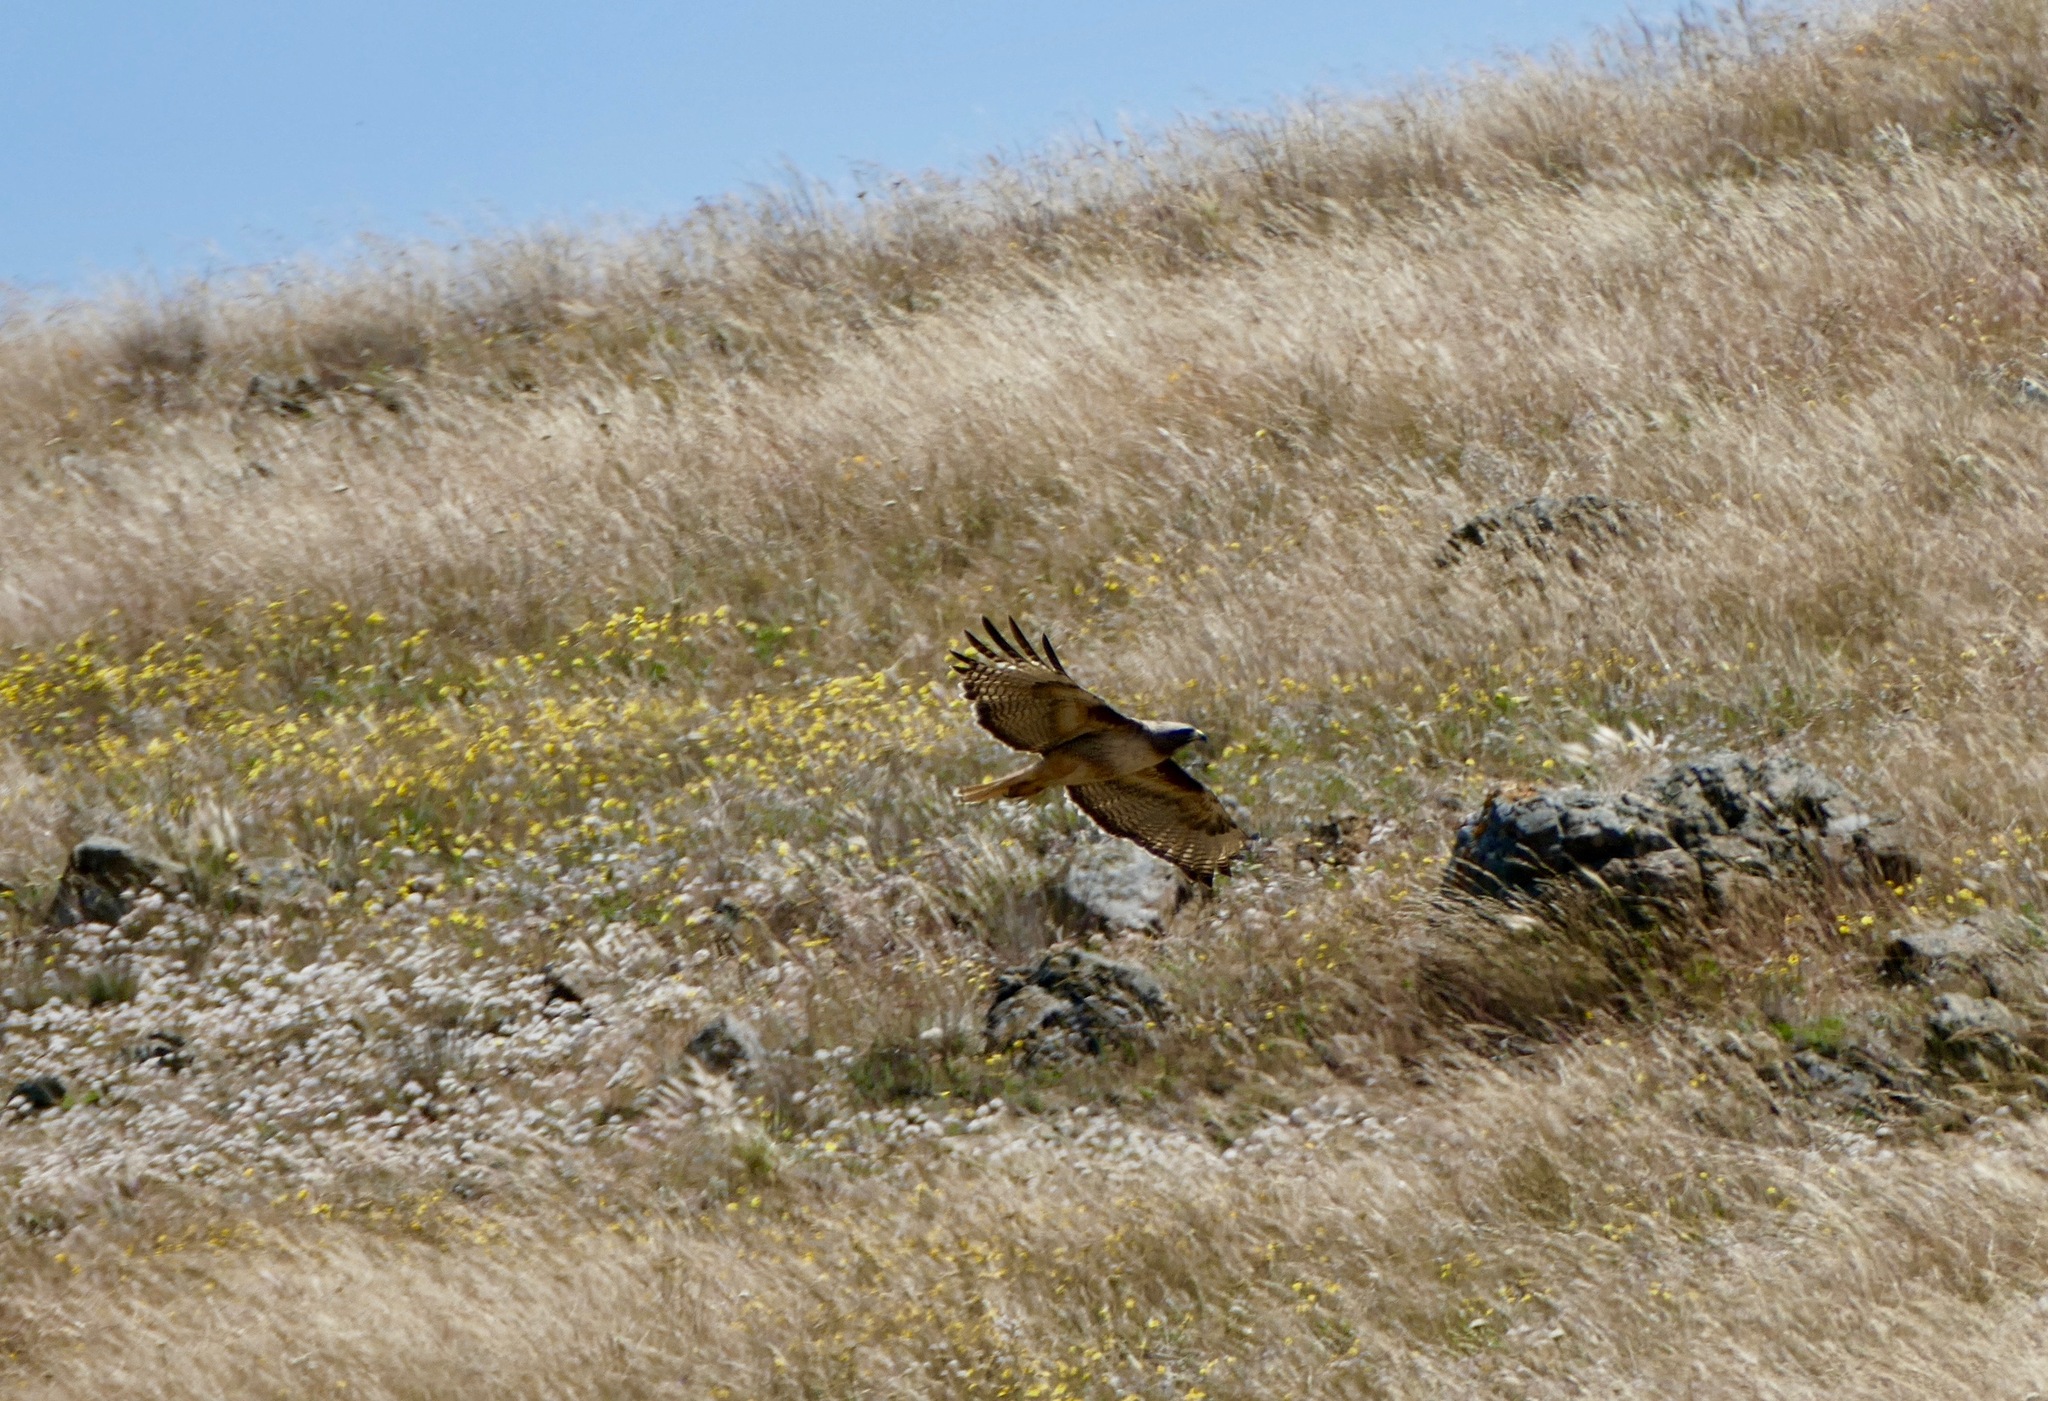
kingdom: Animalia
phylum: Chordata
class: Aves
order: Accipitriformes
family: Accipitridae
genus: Buteo
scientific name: Buteo jamaicensis
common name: Red-tailed hawk
